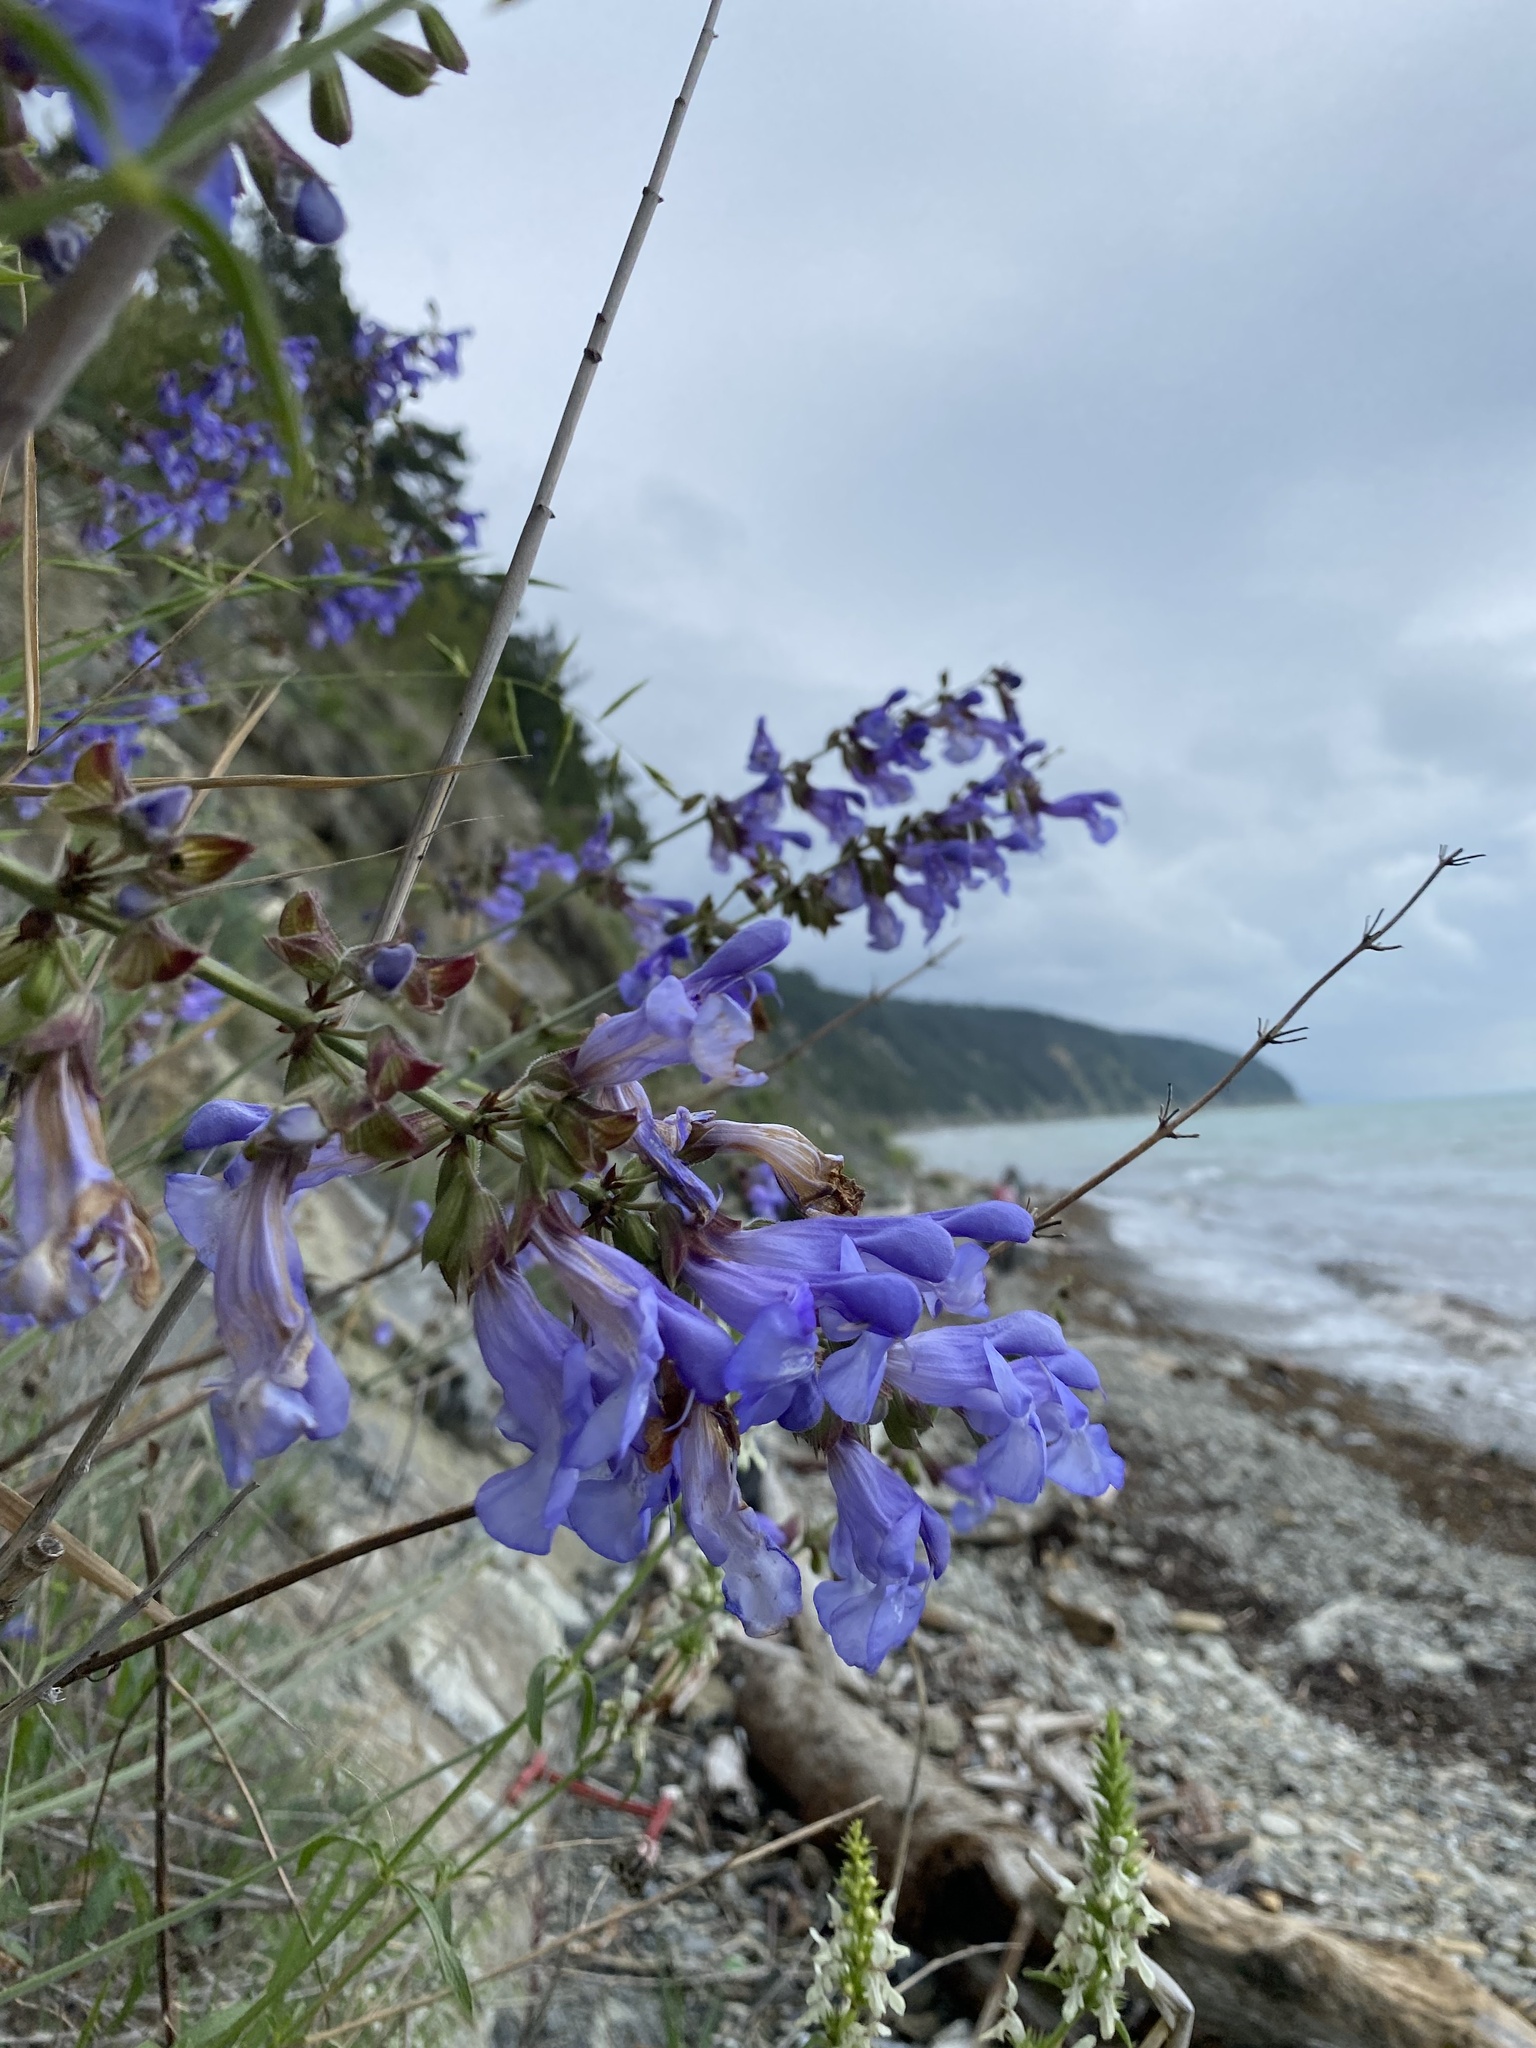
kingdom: Plantae
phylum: Tracheophyta
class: Magnoliopsida
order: Lamiales
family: Lamiaceae
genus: Salvia
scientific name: Salvia ringens
